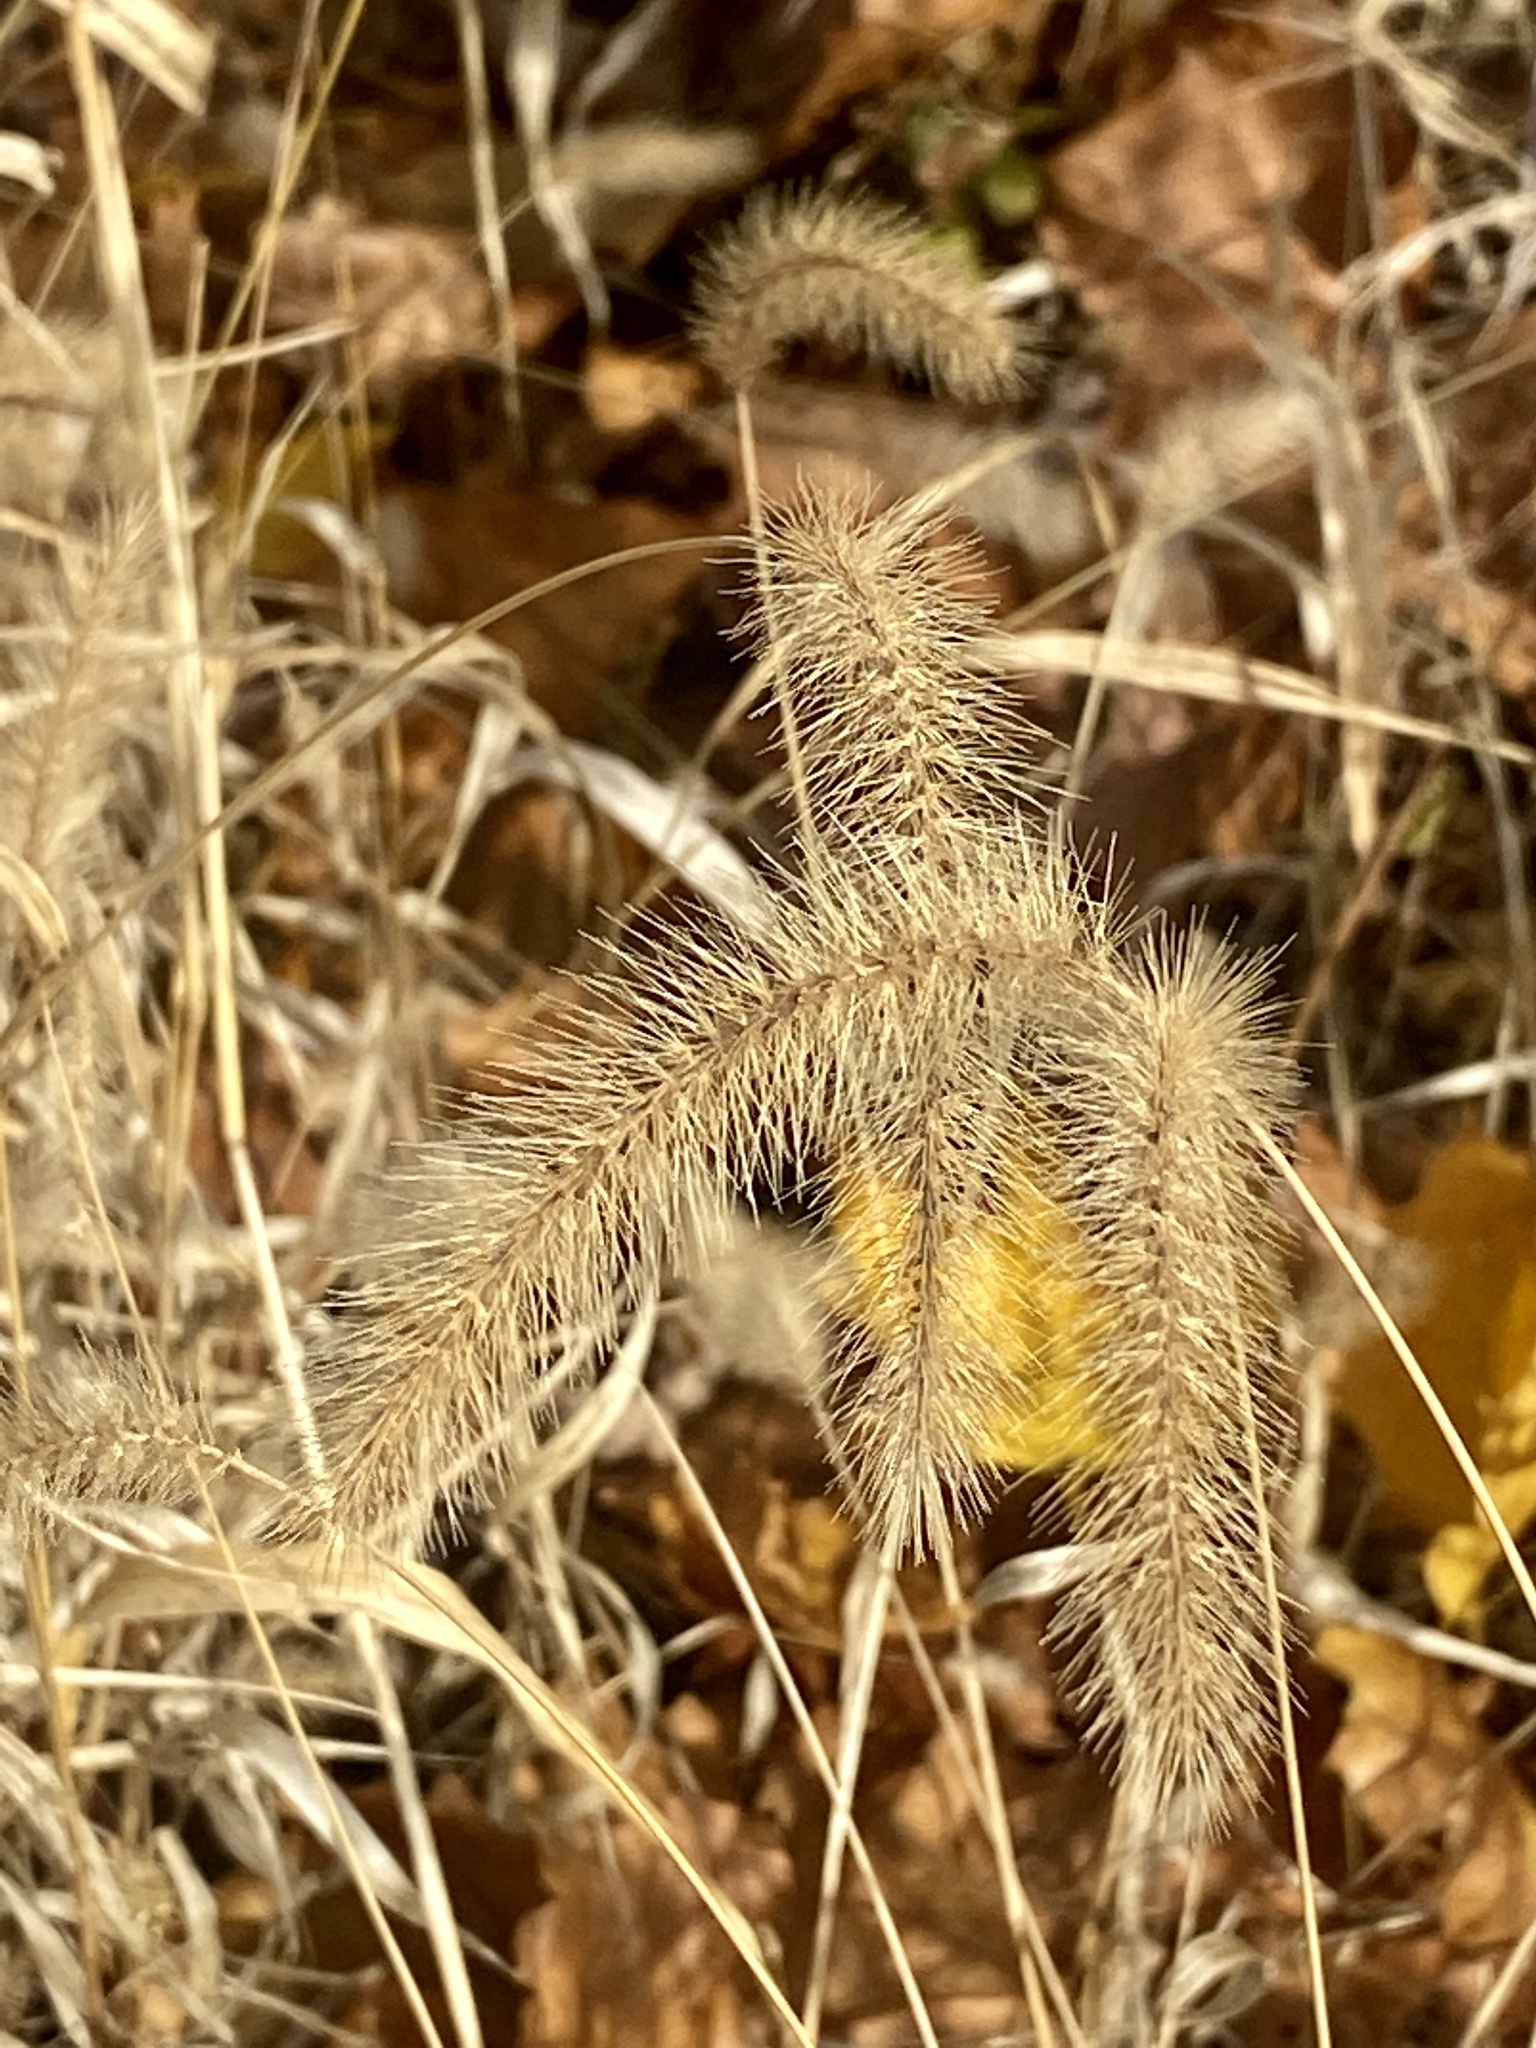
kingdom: Plantae
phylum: Tracheophyta
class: Liliopsida
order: Poales
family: Poaceae
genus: Setaria
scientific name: Setaria faberi
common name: Nodding bristle-grass
